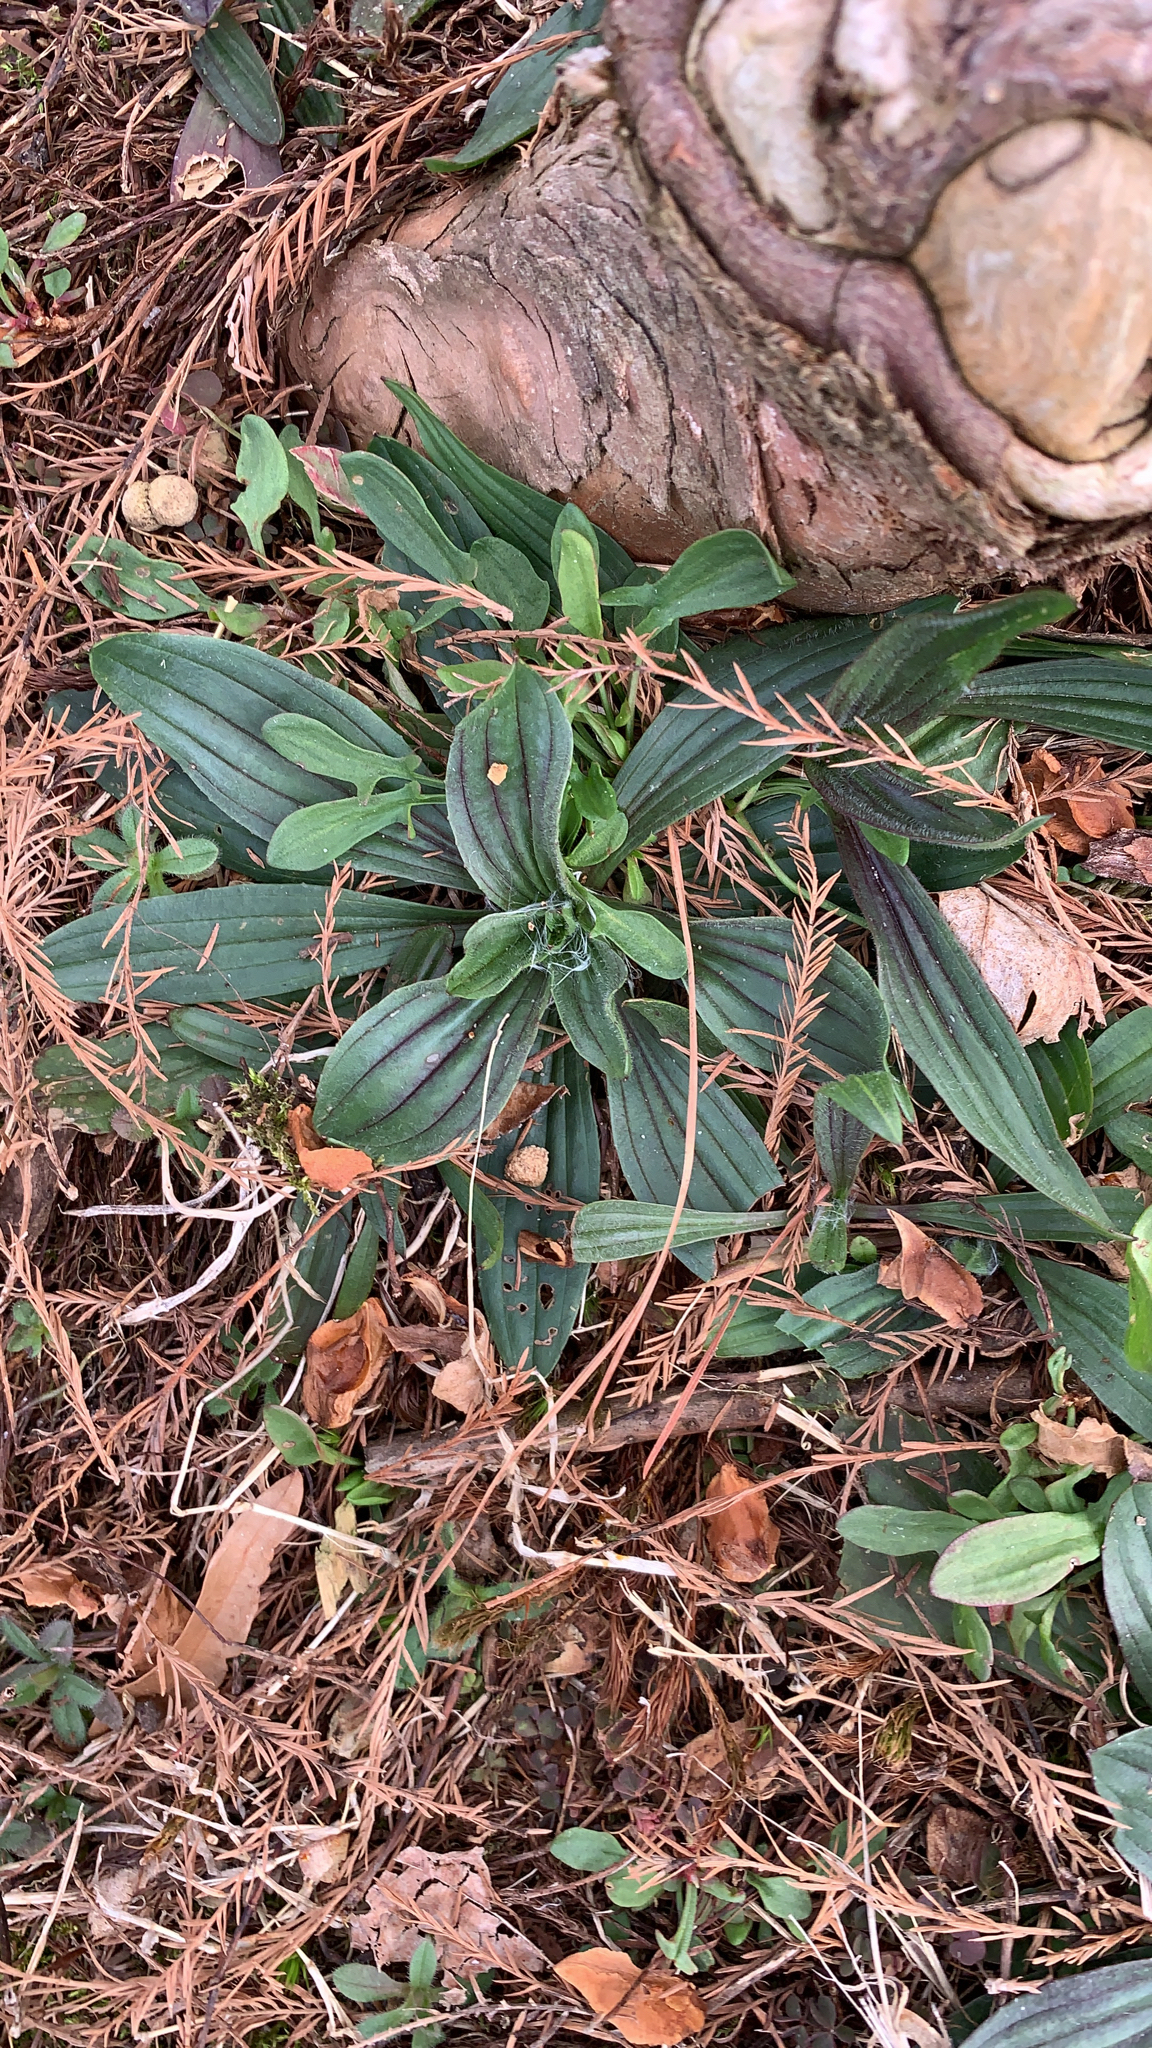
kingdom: Plantae
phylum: Tracheophyta
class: Magnoliopsida
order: Lamiales
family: Plantaginaceae
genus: Plantago
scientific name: Plantago lanceolata
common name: Ribwort plantain
